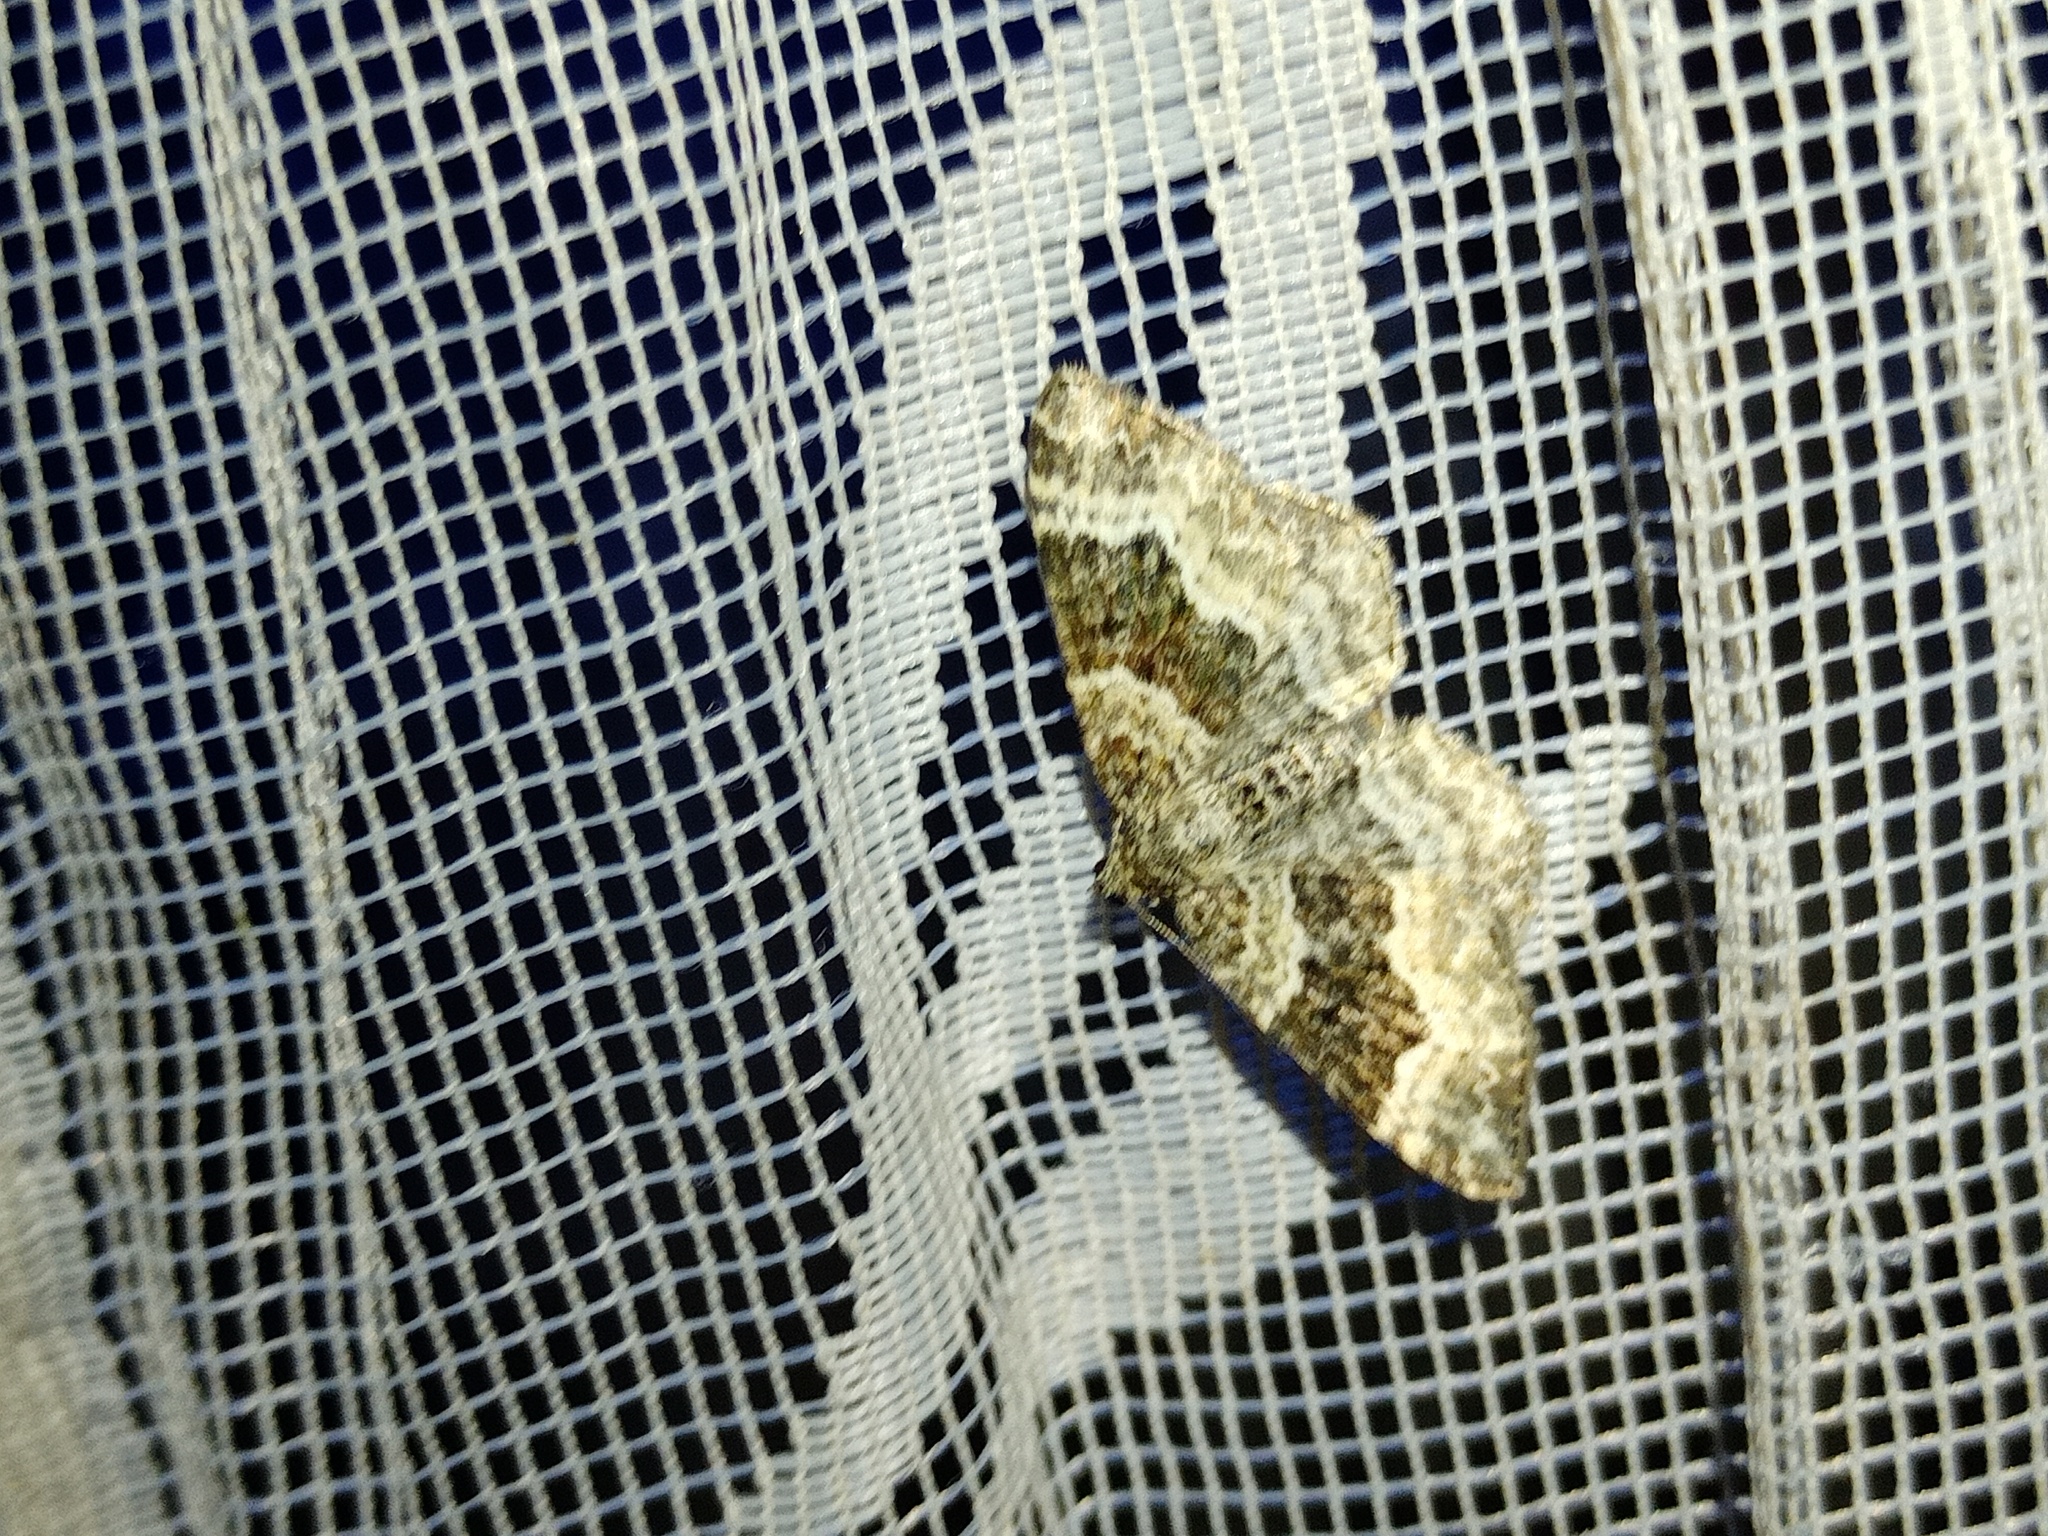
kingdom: Animalia
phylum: Arthropoda
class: Insecta
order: Lepidoptera
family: Geometridae
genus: Epirrhoe
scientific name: Epirrhoe alternata
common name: Common carpet
